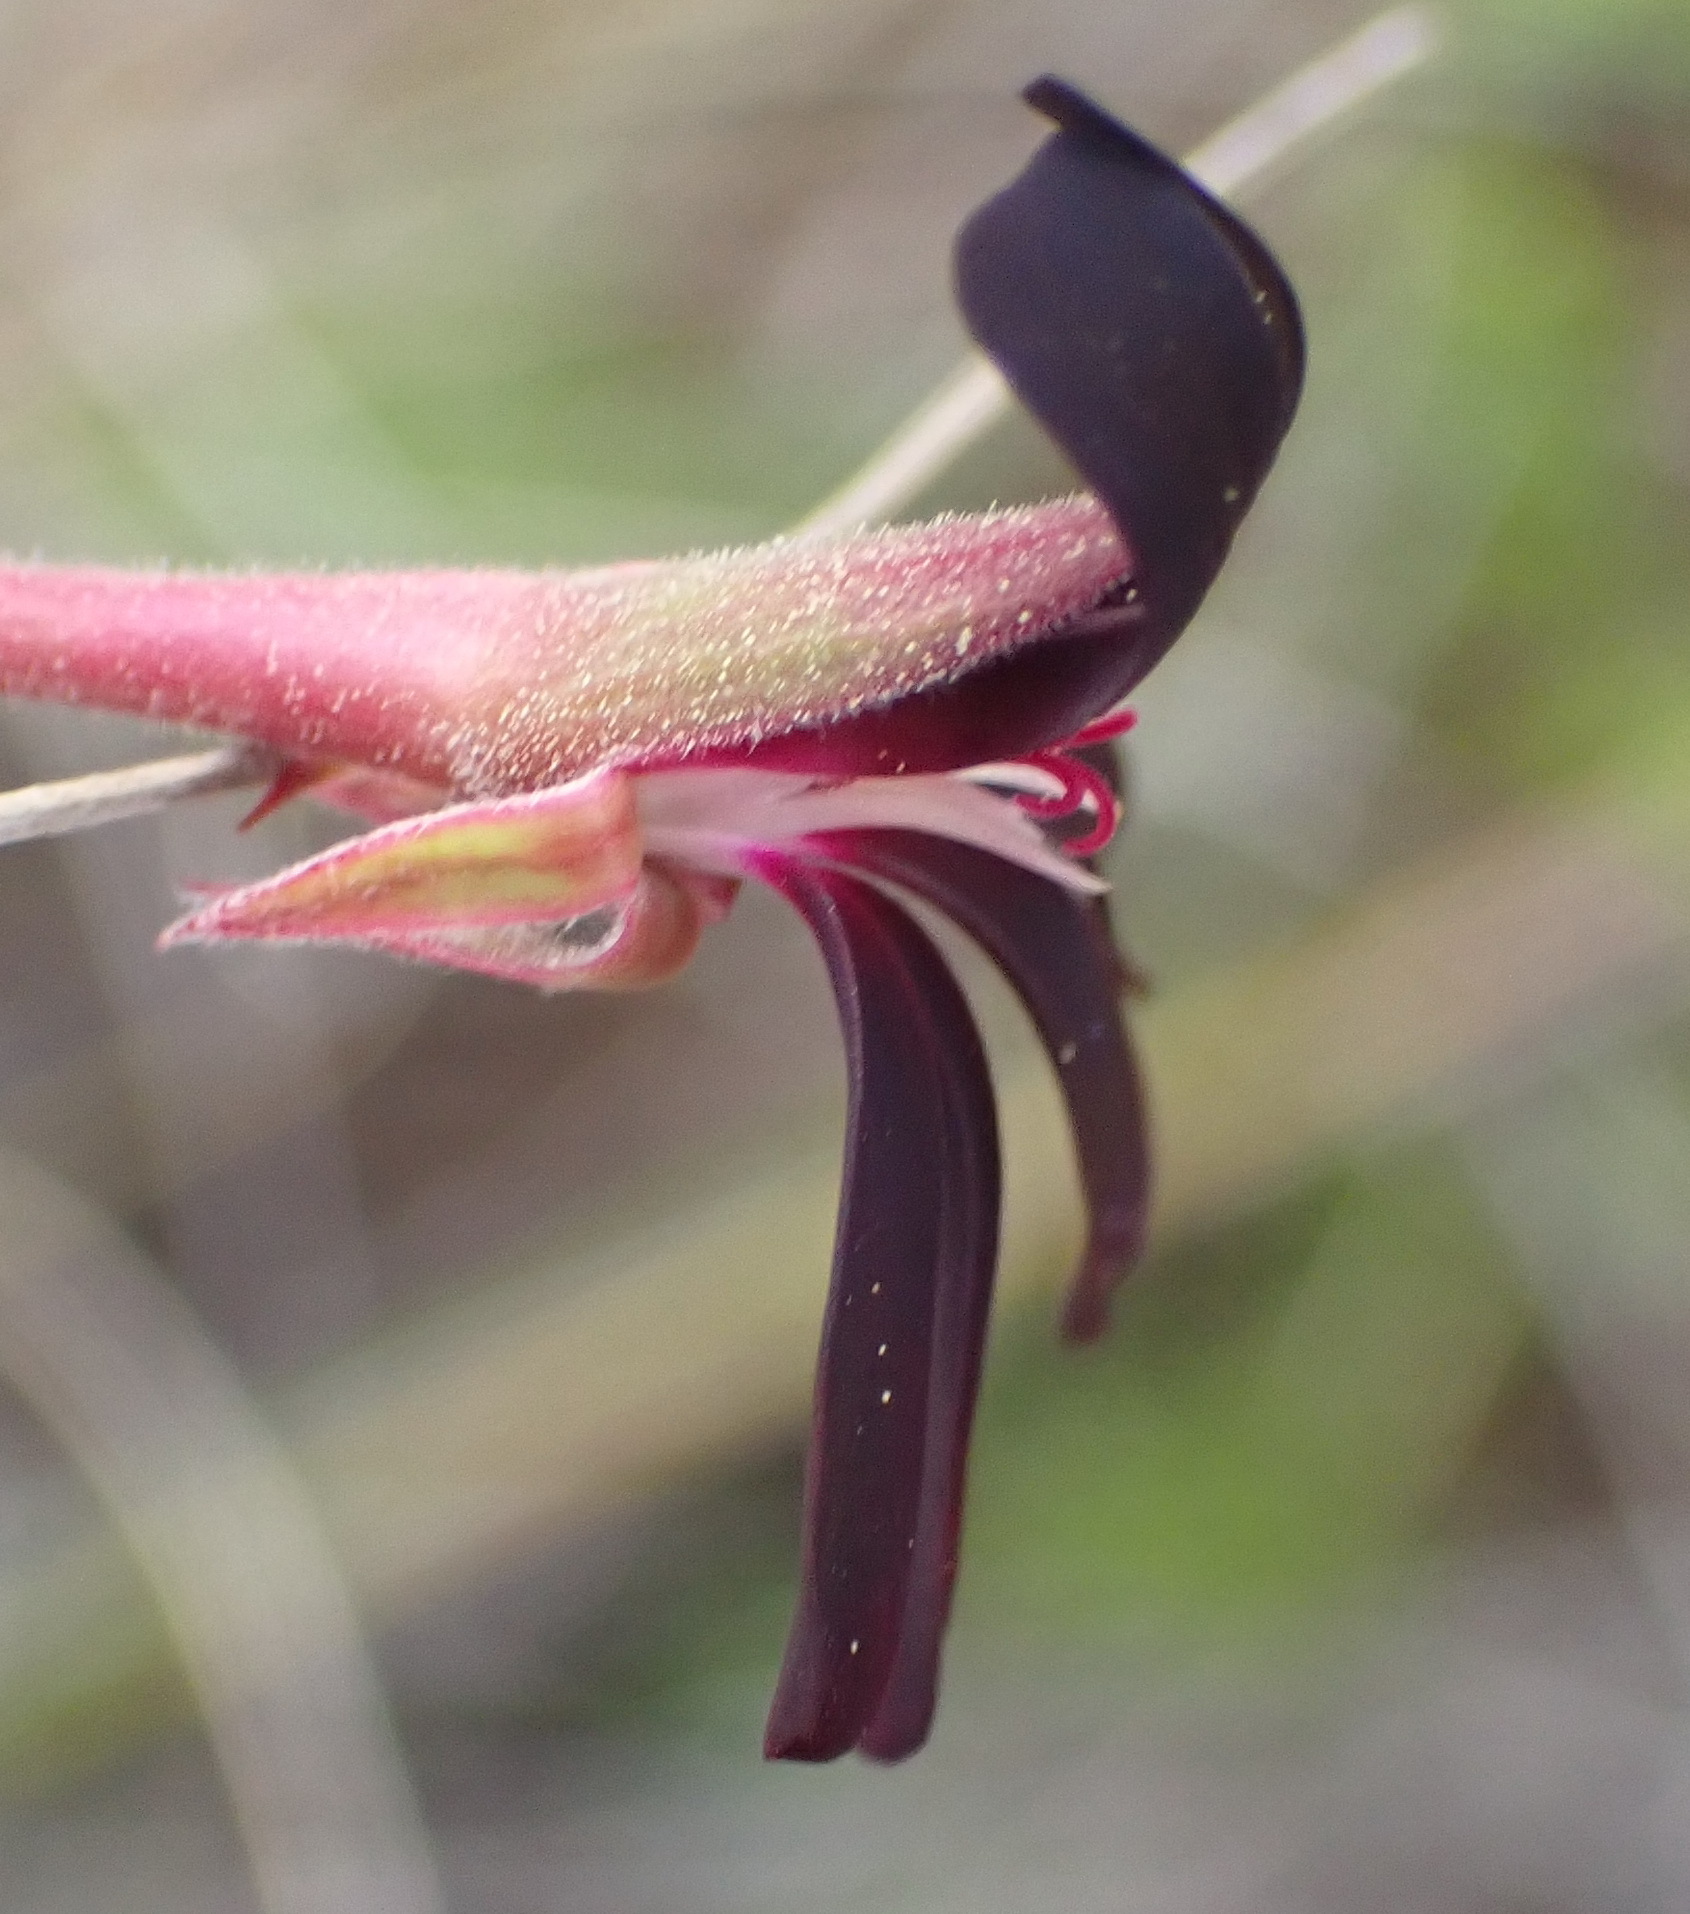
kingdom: Plantae
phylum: Tracheophyta
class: Magnoliopsida
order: Geraniales
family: Geraniaceae
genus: Pelargonium
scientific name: Pelargonium sidoides
